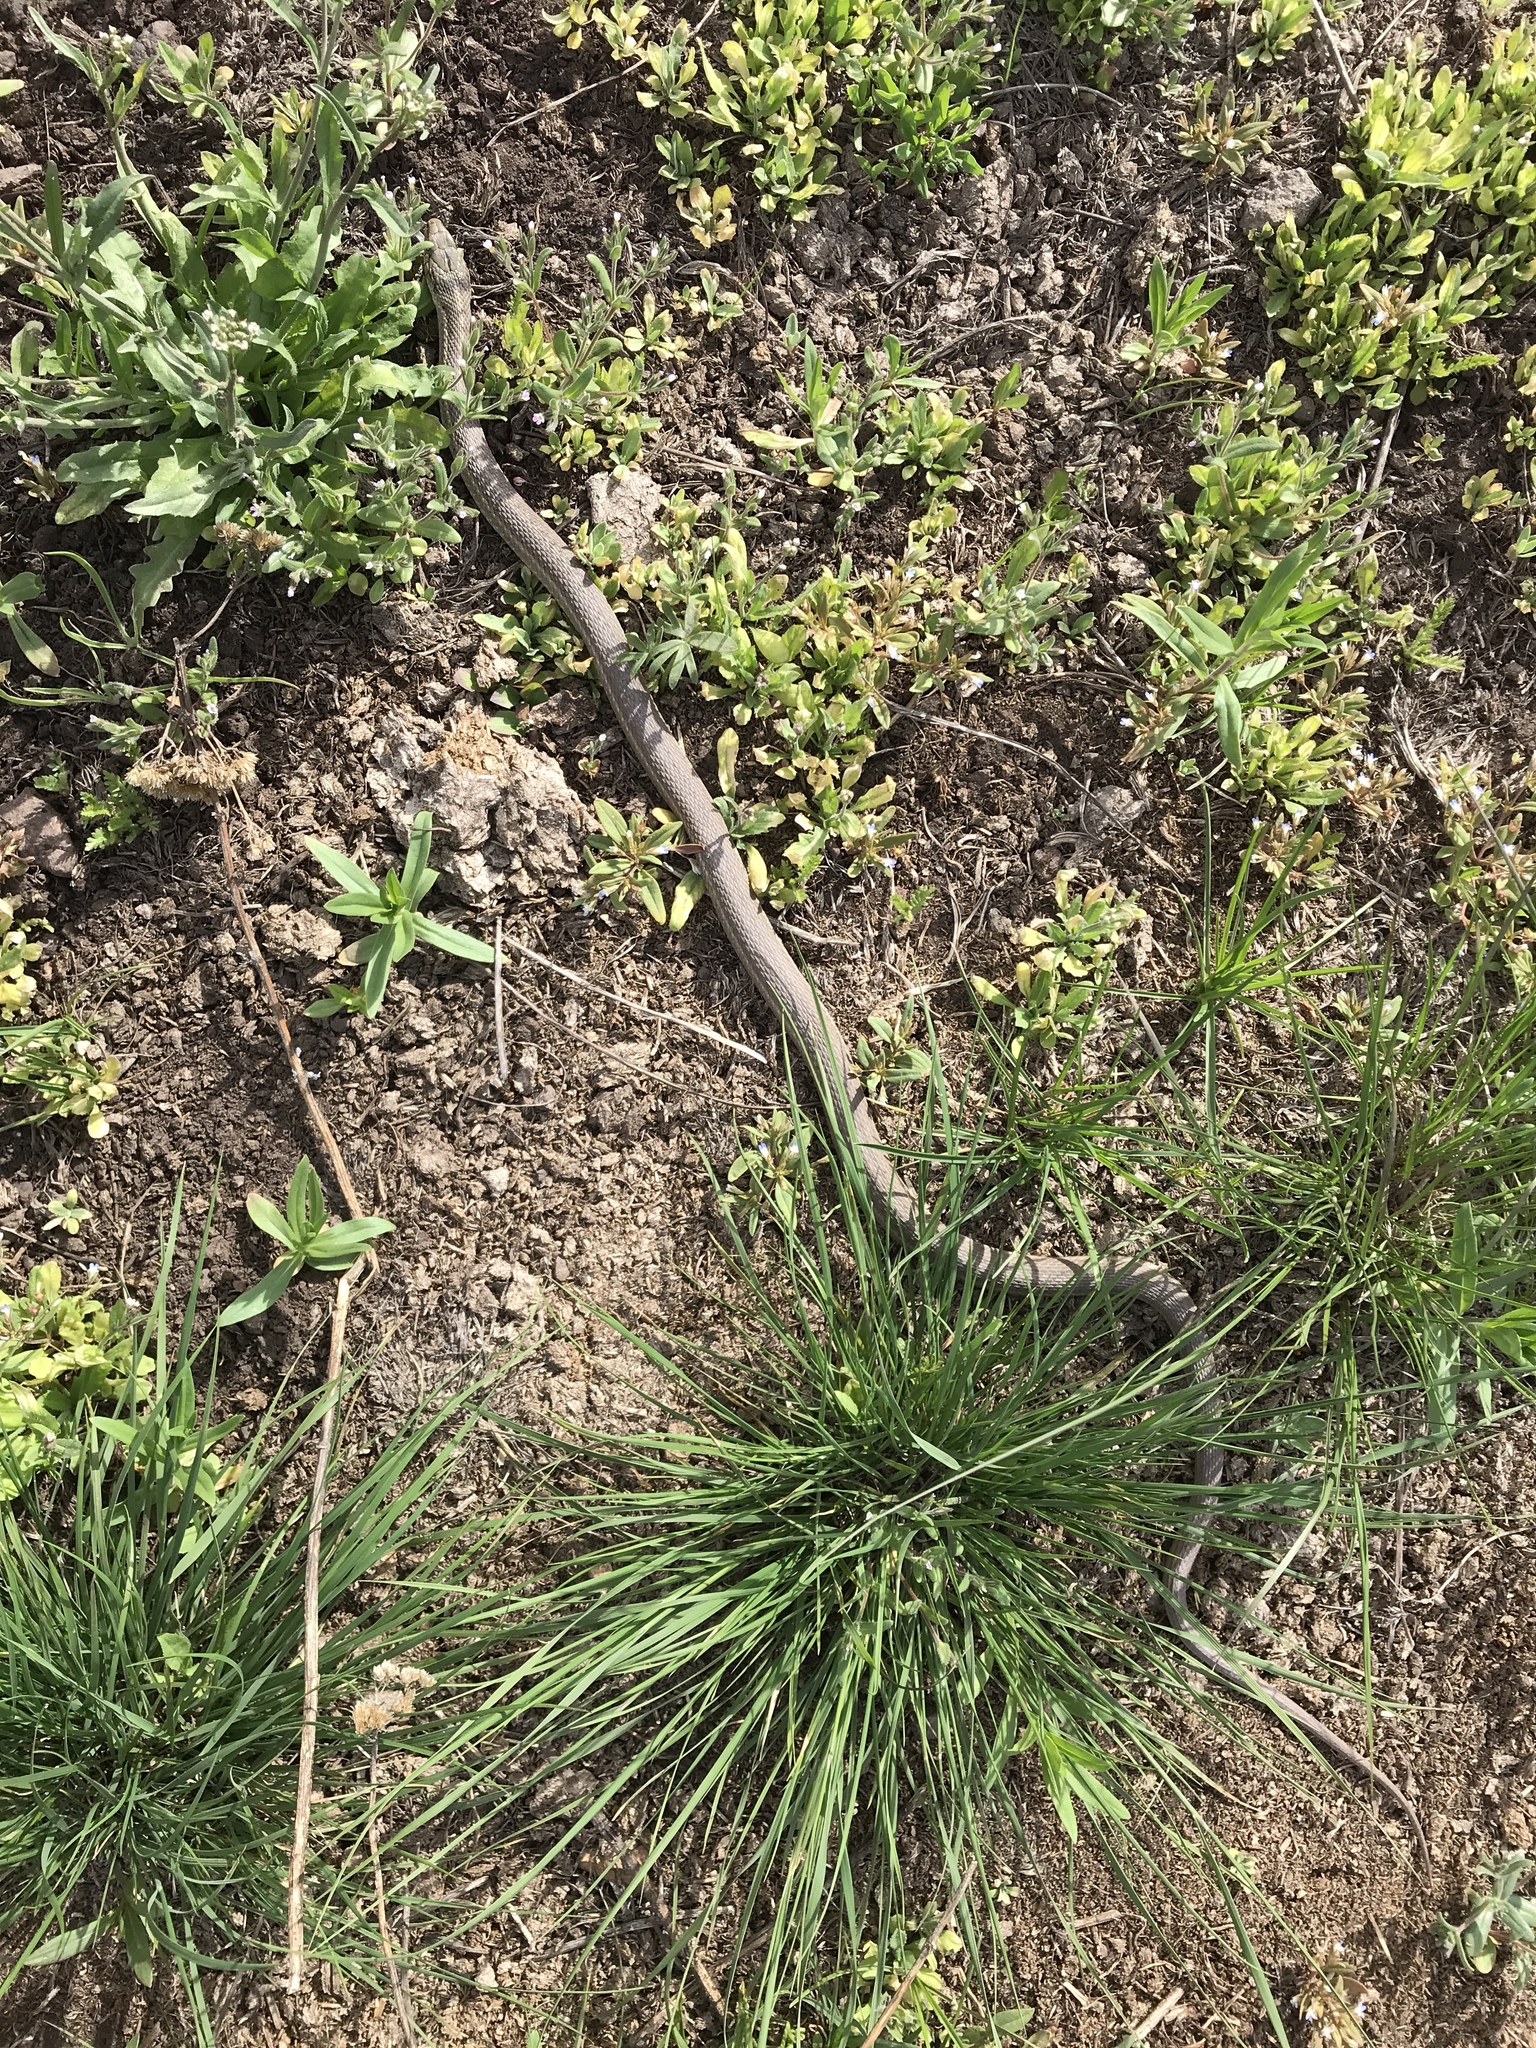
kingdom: Animalia
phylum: Chordata
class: Squamata
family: Colubridae
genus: Thamnophis
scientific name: Thamnophis elegans
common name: Western terrestrial garter snake
